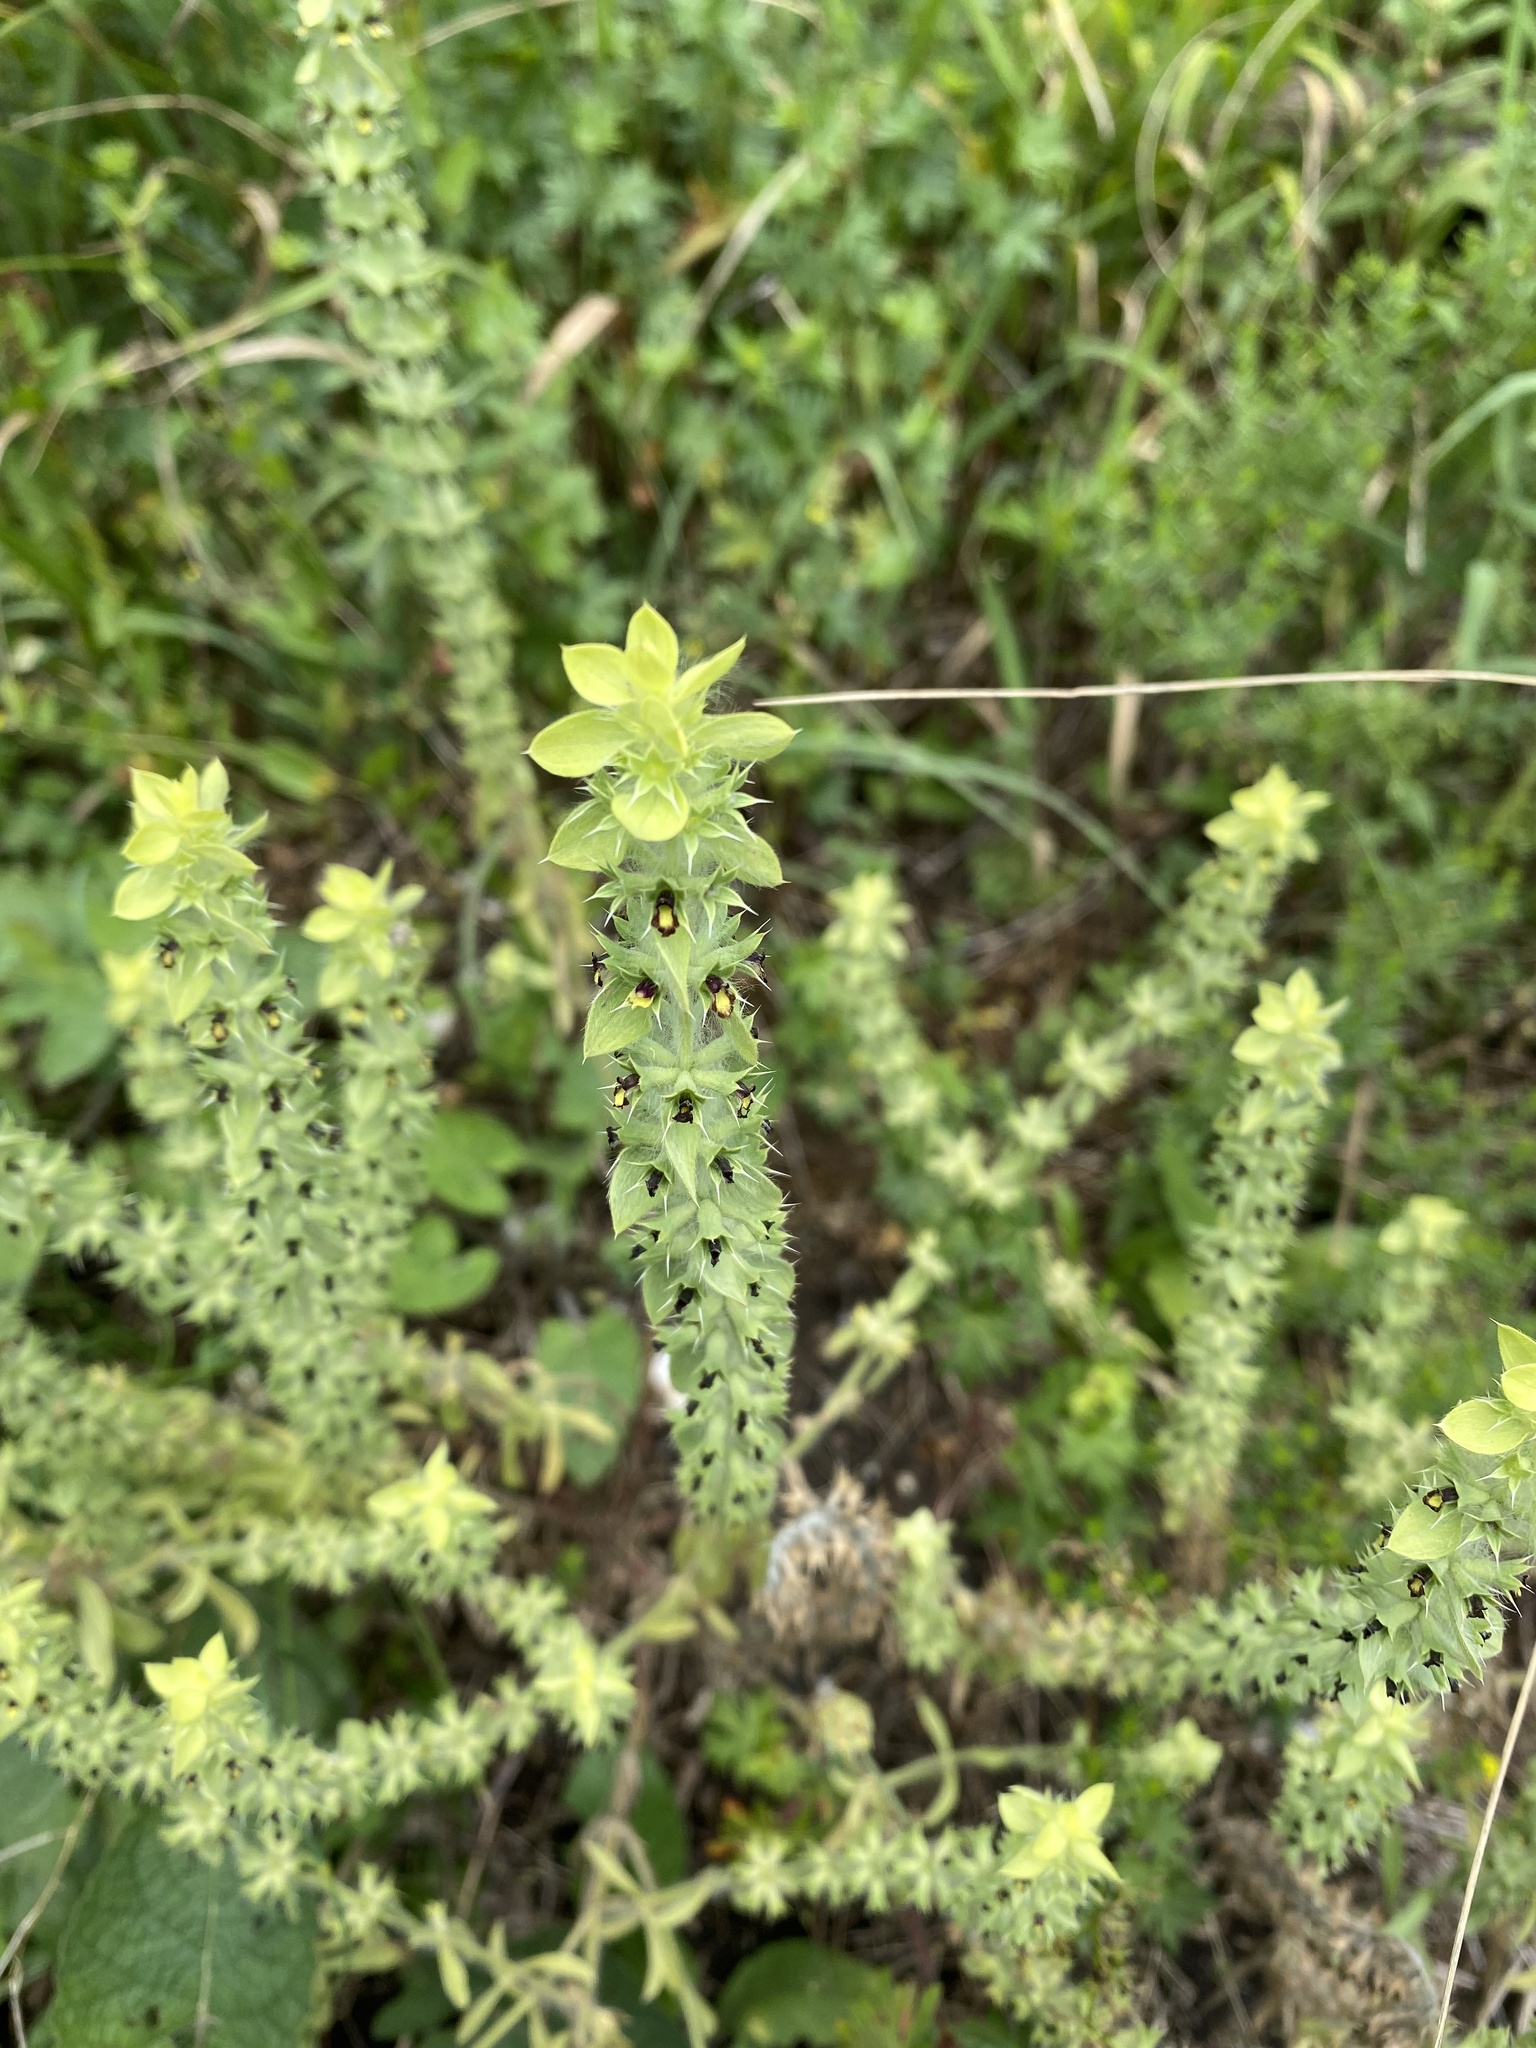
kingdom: Plantae
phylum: Tracheophyta
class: Magnoliopsida
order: Lamiales
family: Lamiaceae
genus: Sideritis
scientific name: Sideritis montana
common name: Mountain ironwort
